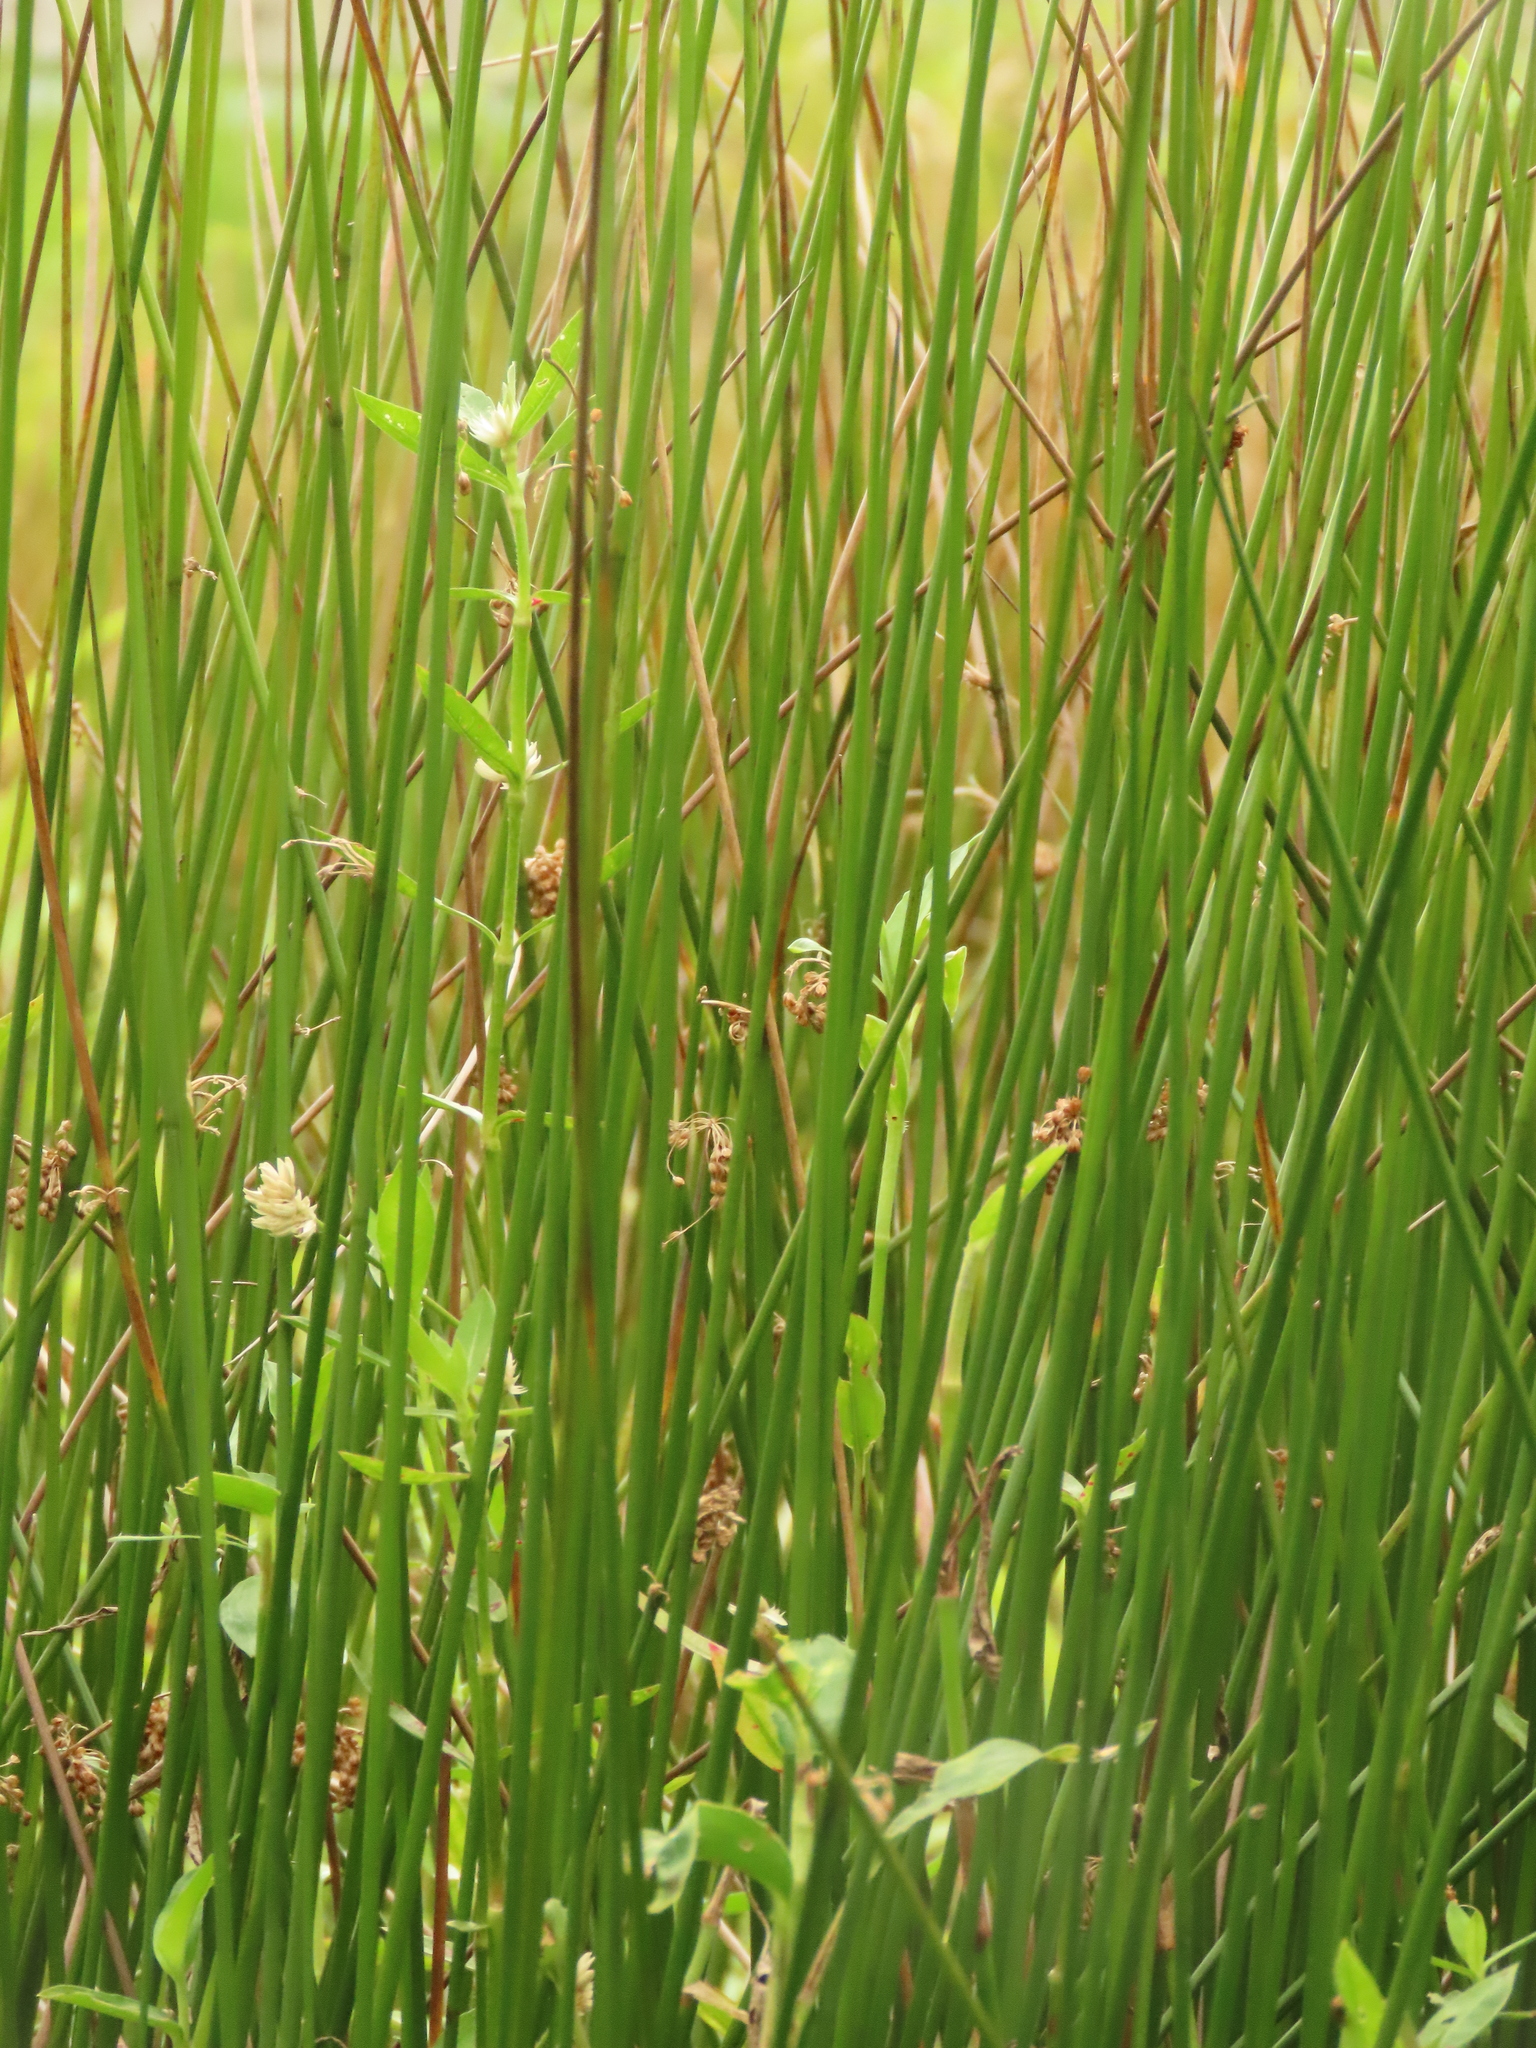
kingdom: Plantae
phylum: Tracheophyta
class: Liliopsida
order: Poales
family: Juncaceae
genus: Juncus
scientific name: Juncus effusus
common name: Soft rush
